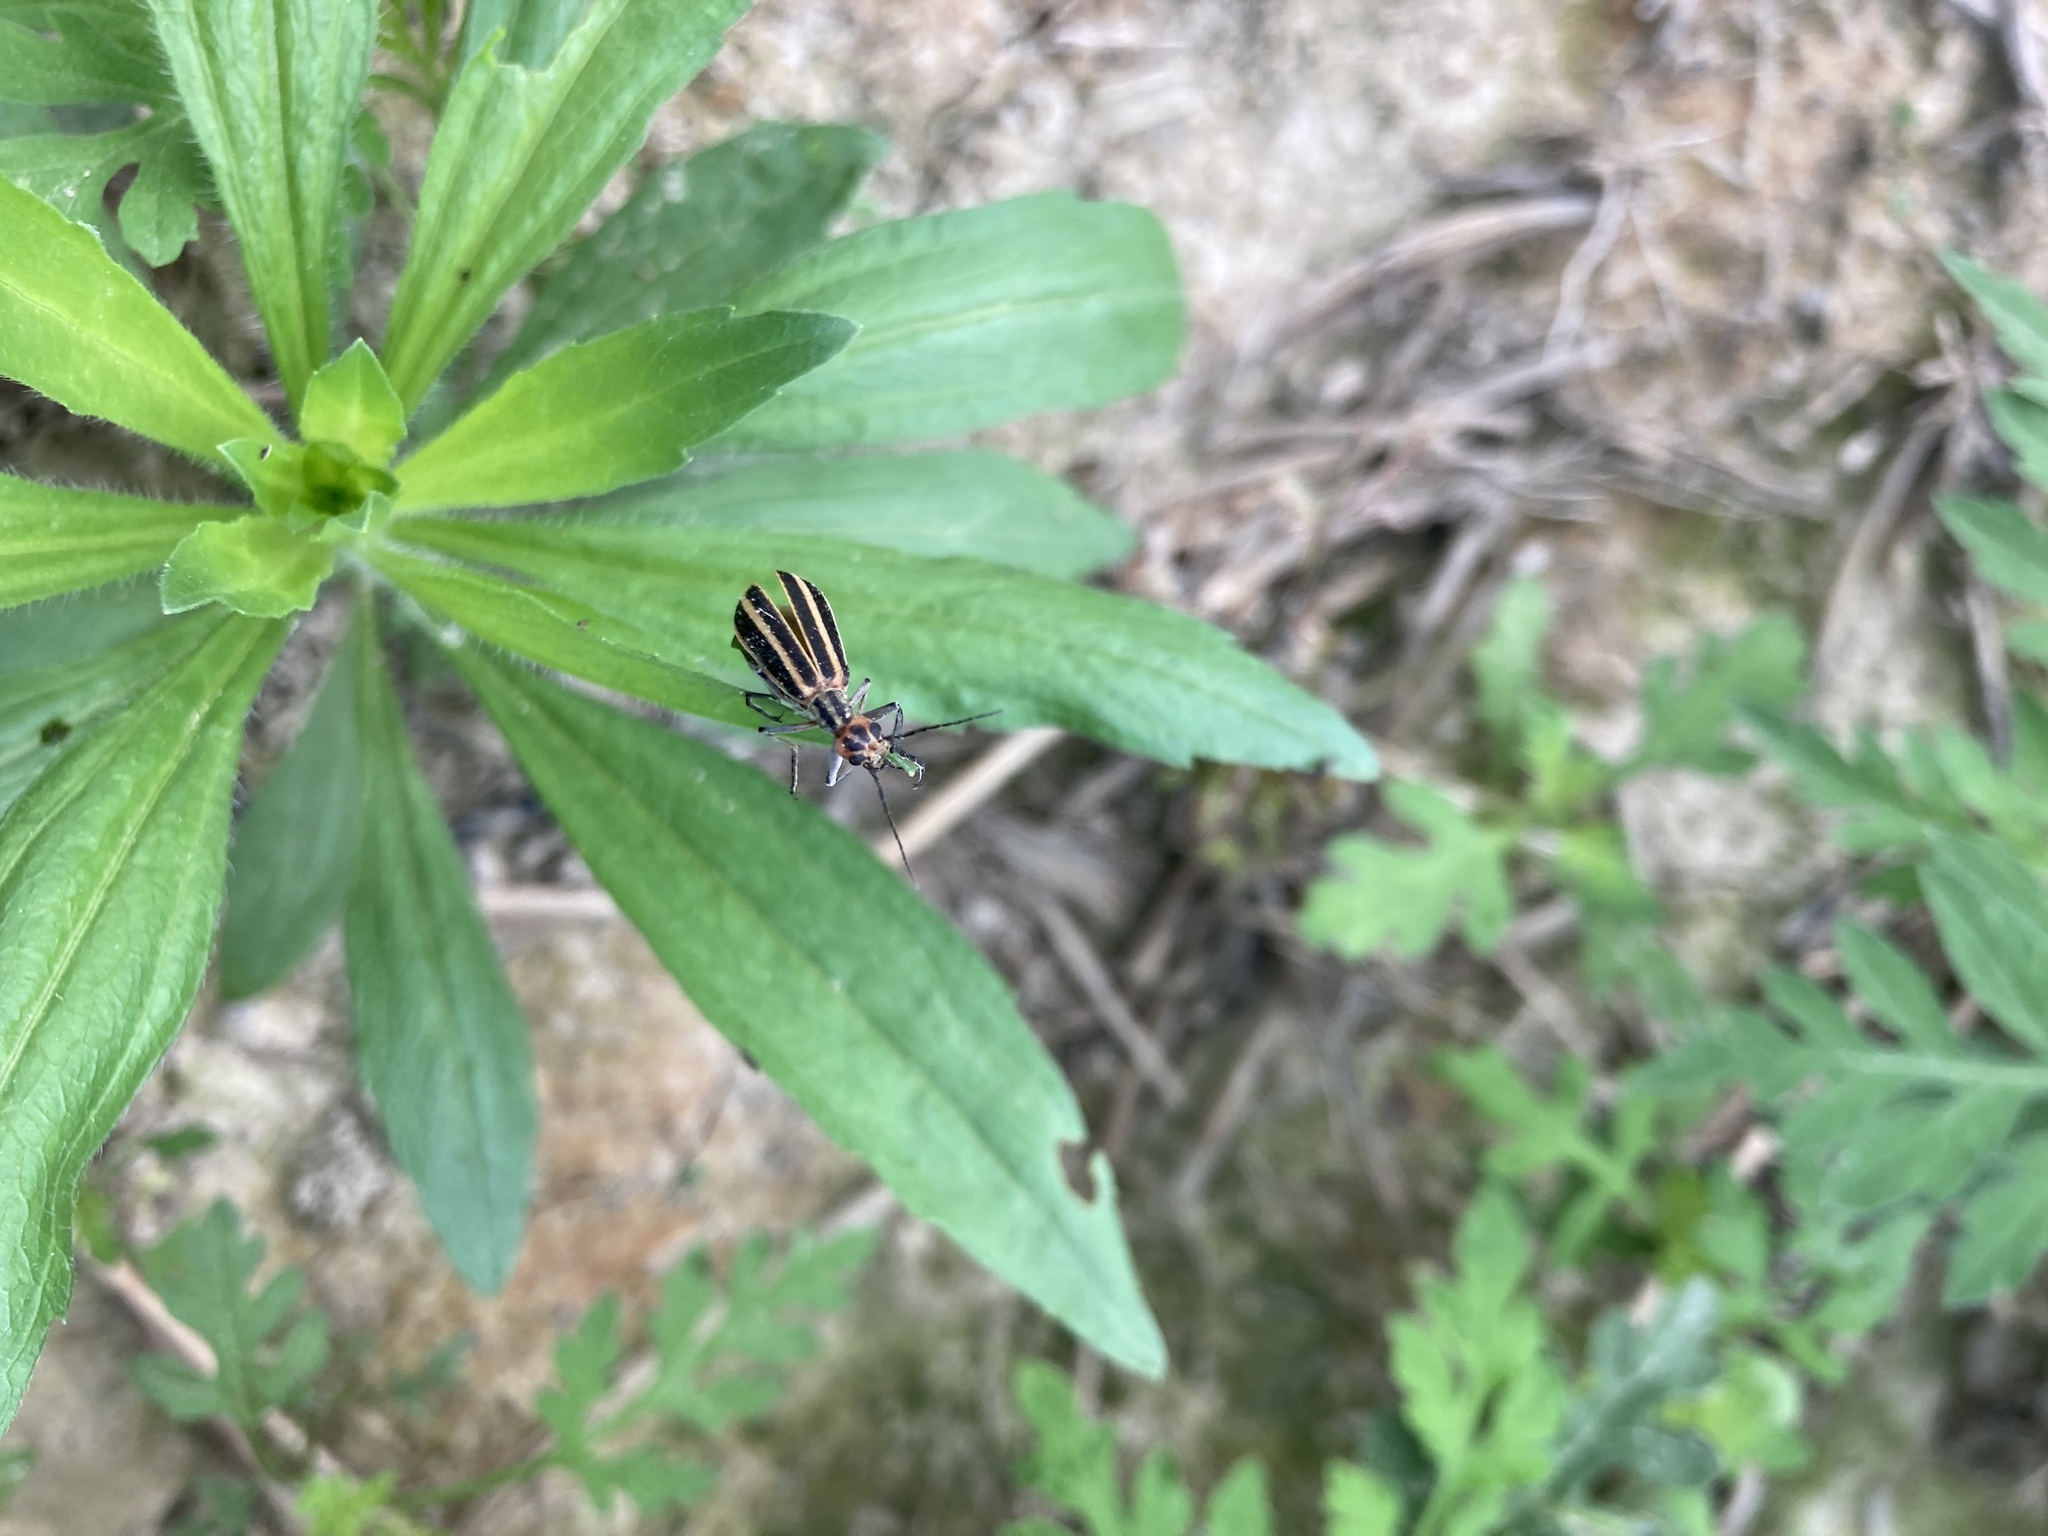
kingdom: Animalia
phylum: Arthropoda
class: Insecta
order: Coleoptera
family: Meloidae
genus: Epicauta
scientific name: Epicauta vittata
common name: Old-fashioned potato beetle
